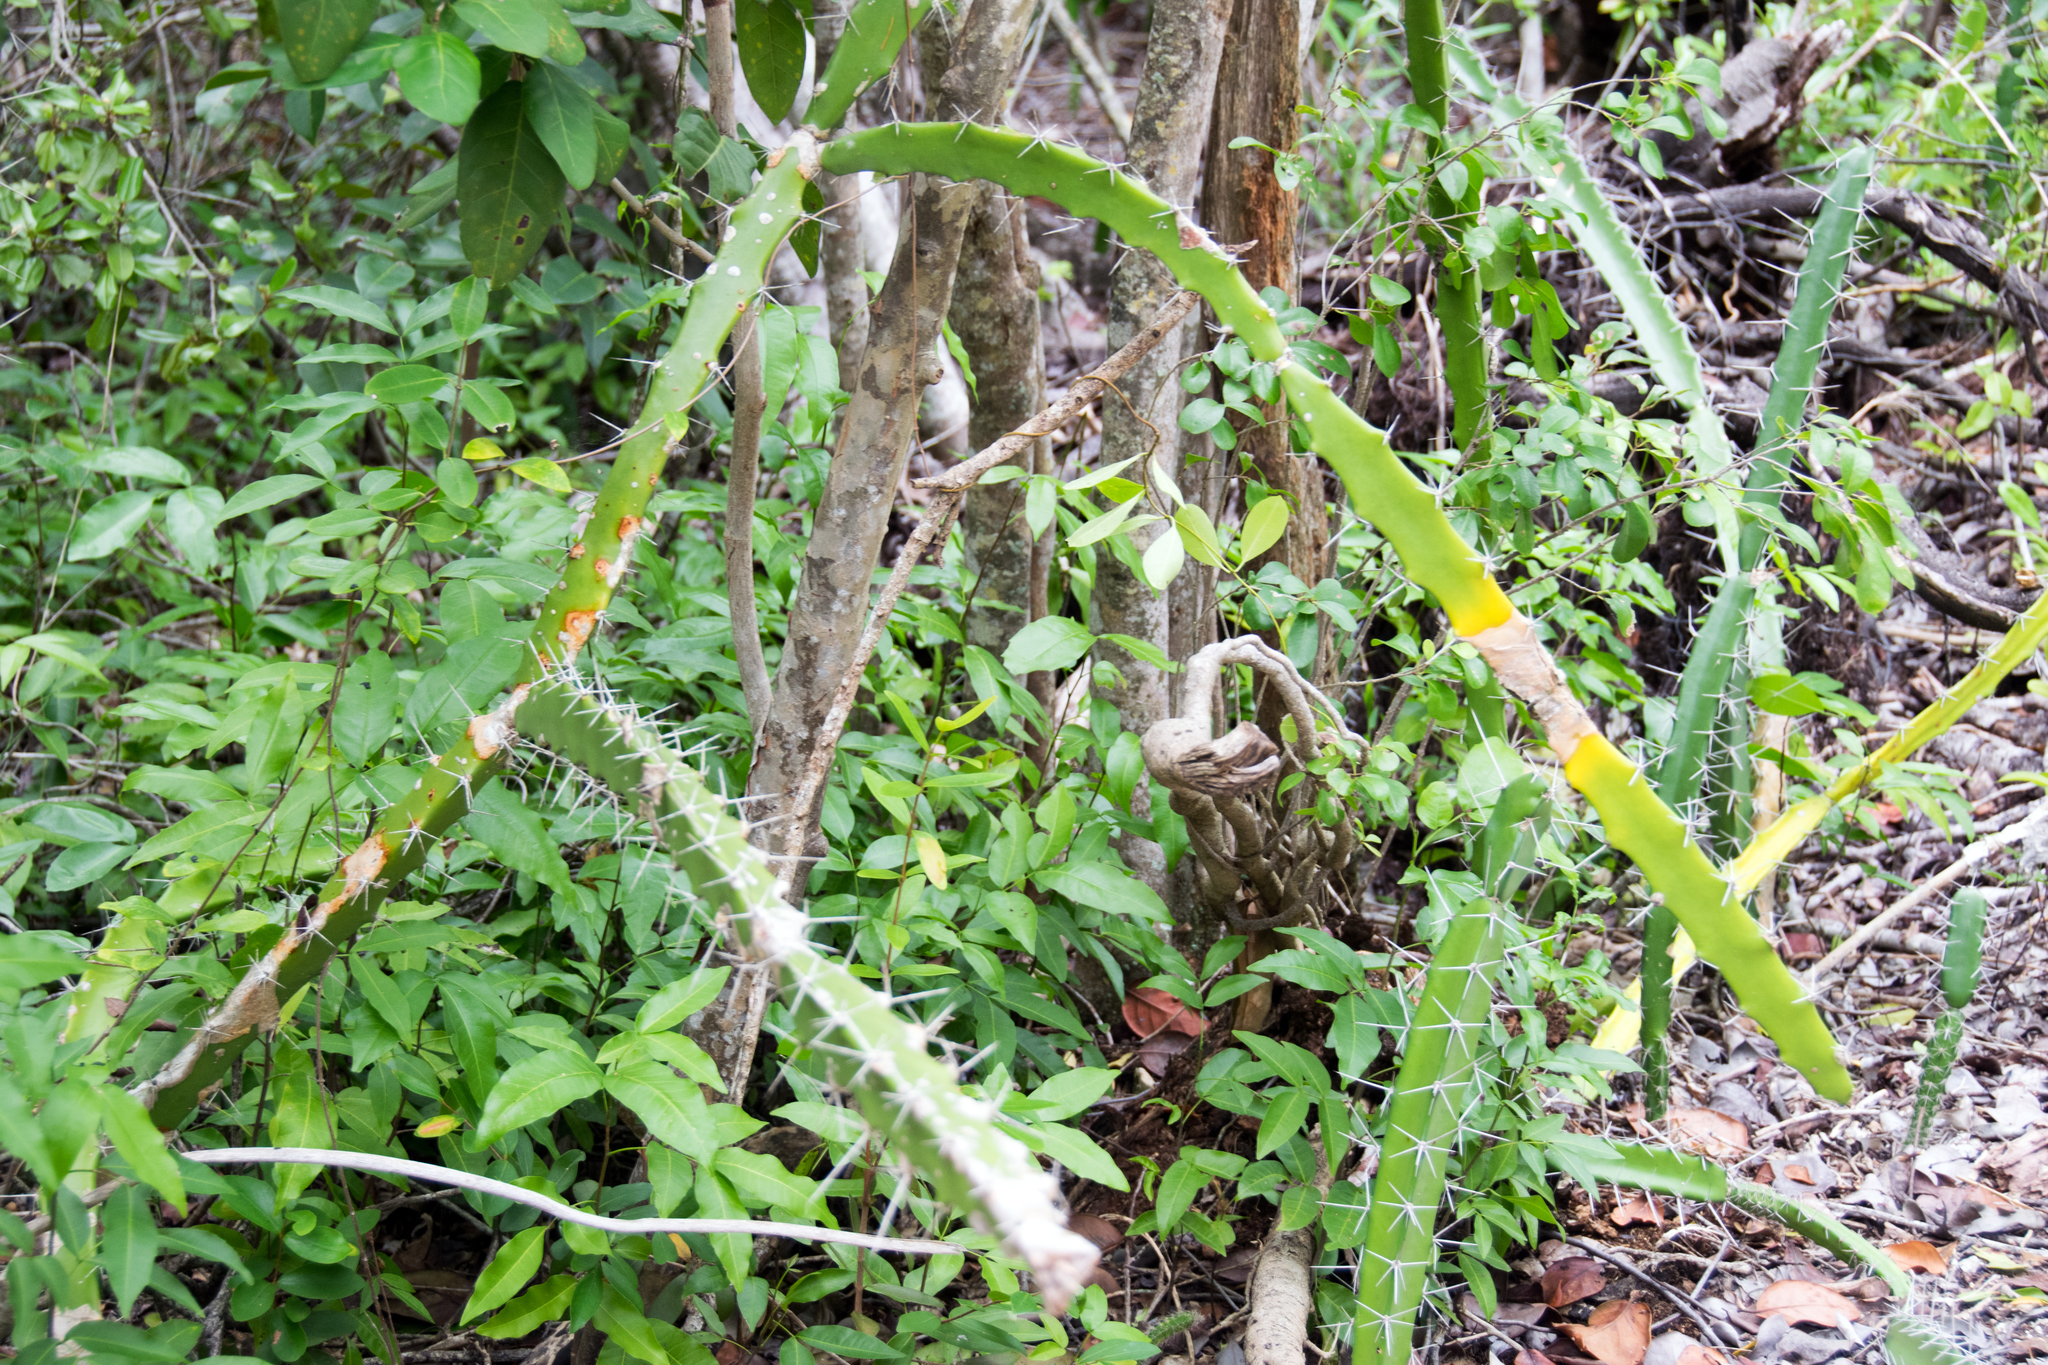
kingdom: Plantae
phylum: Tracheophyta
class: Magnoliopsida
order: Caryophyllales
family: Cactaceae
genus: Acanthocereus
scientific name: Acanthocereus tetragonus
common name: Triangle cactus
